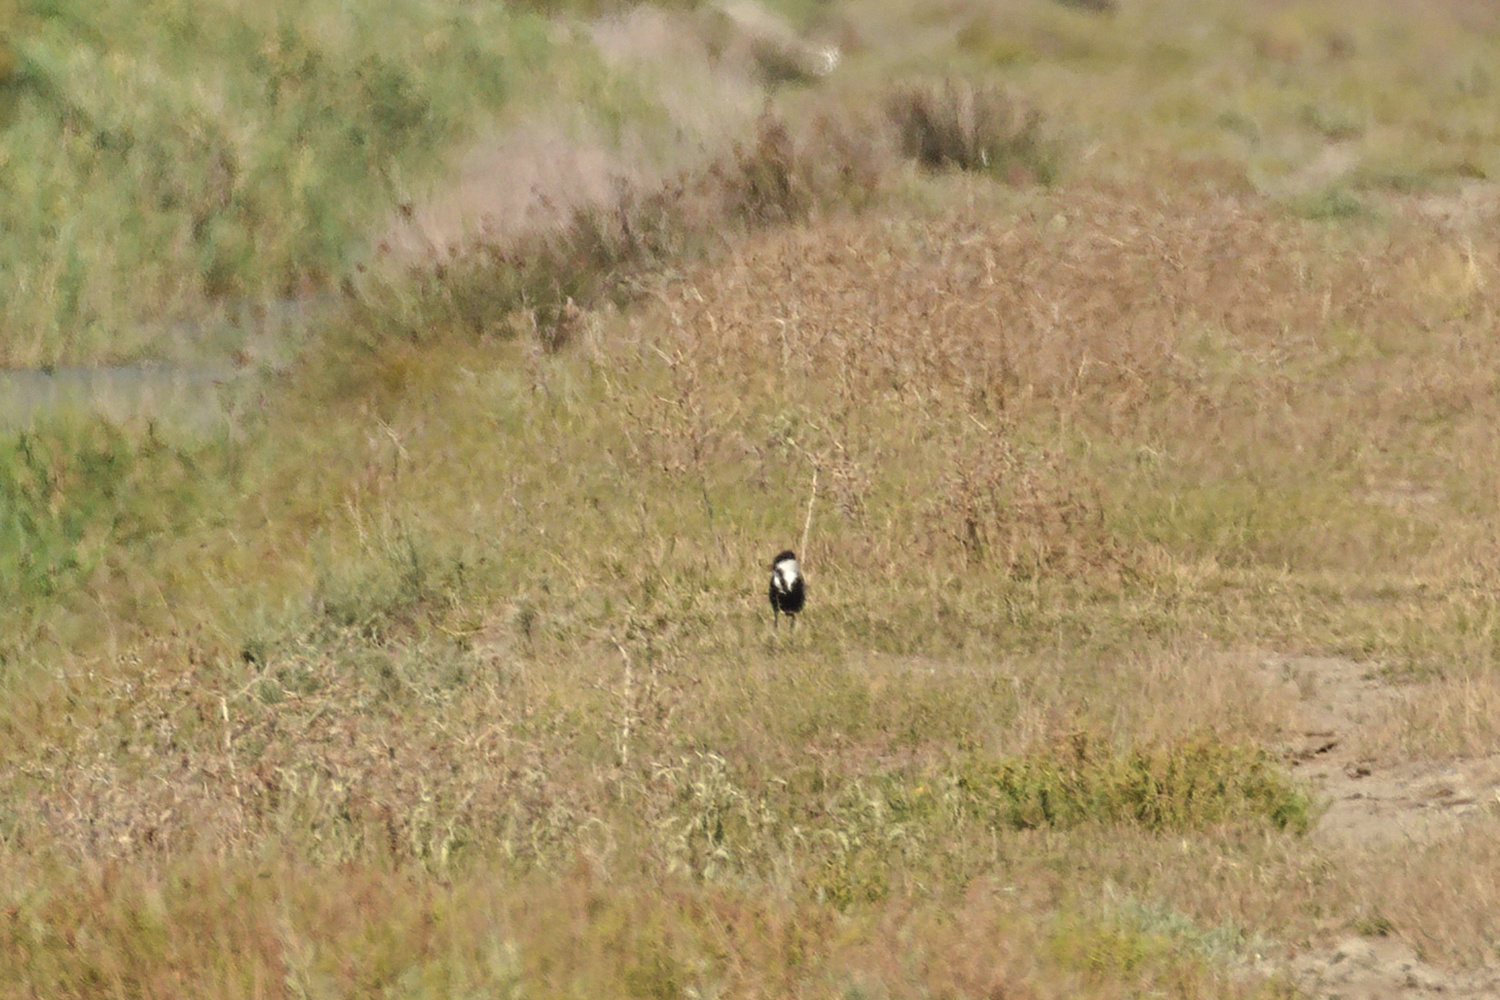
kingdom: Animalia
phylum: Chordata
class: Aves
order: Charadriiformes
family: Charadriidae
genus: Vanellus
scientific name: Vanellus spinosus
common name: Spur-winged lapwing
